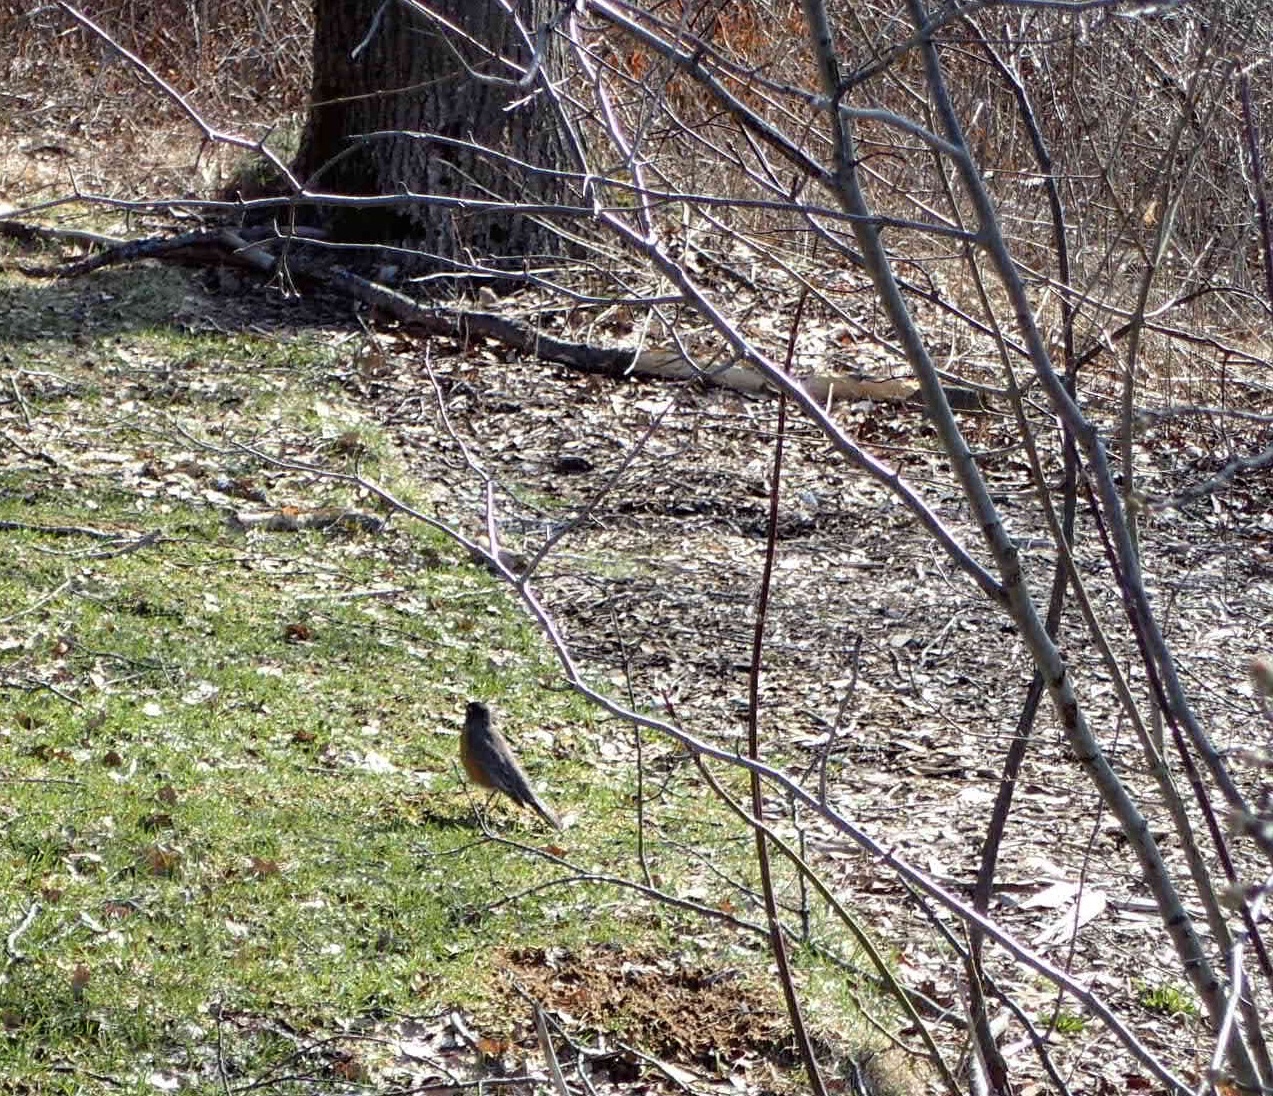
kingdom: Animalia
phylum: Chordata
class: Aves
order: Passeriformes
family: Turdidae
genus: Turdus
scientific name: Turdus migratorius
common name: American robin
